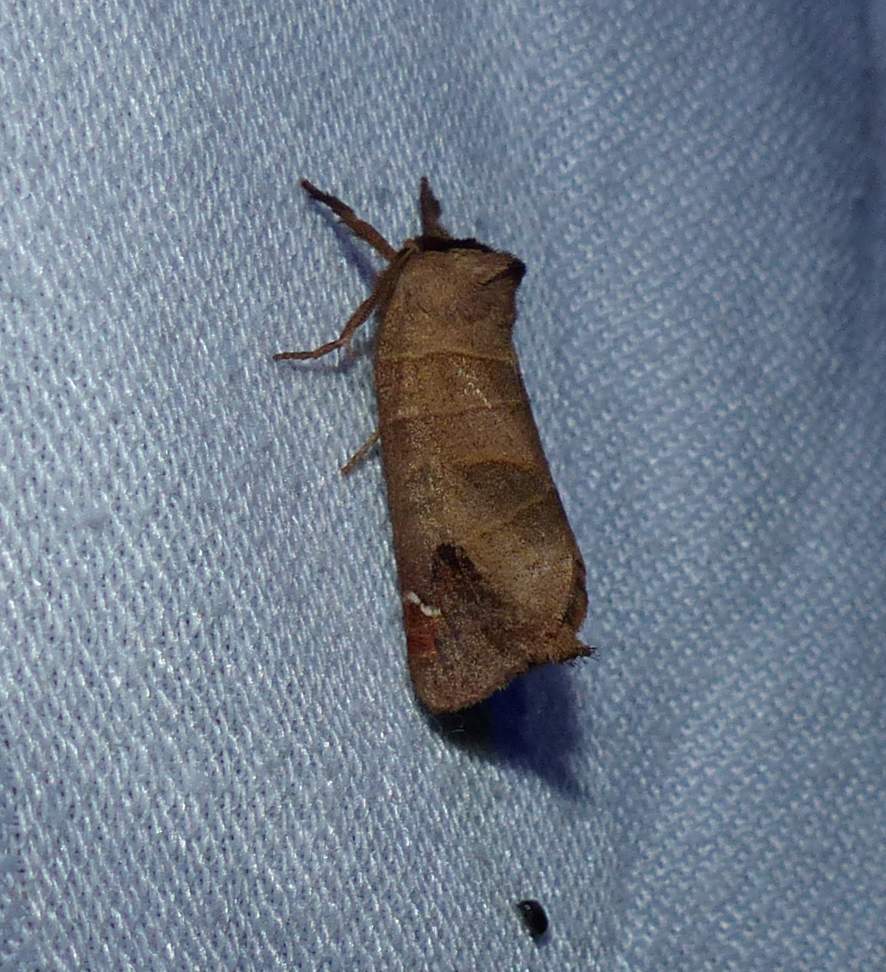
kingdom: Animalia
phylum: Arthropoda
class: Insecta
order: Lepidoptera
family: Notodontidae
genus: Clostera
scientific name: Clostera albosigma
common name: Sigmoid prominent
